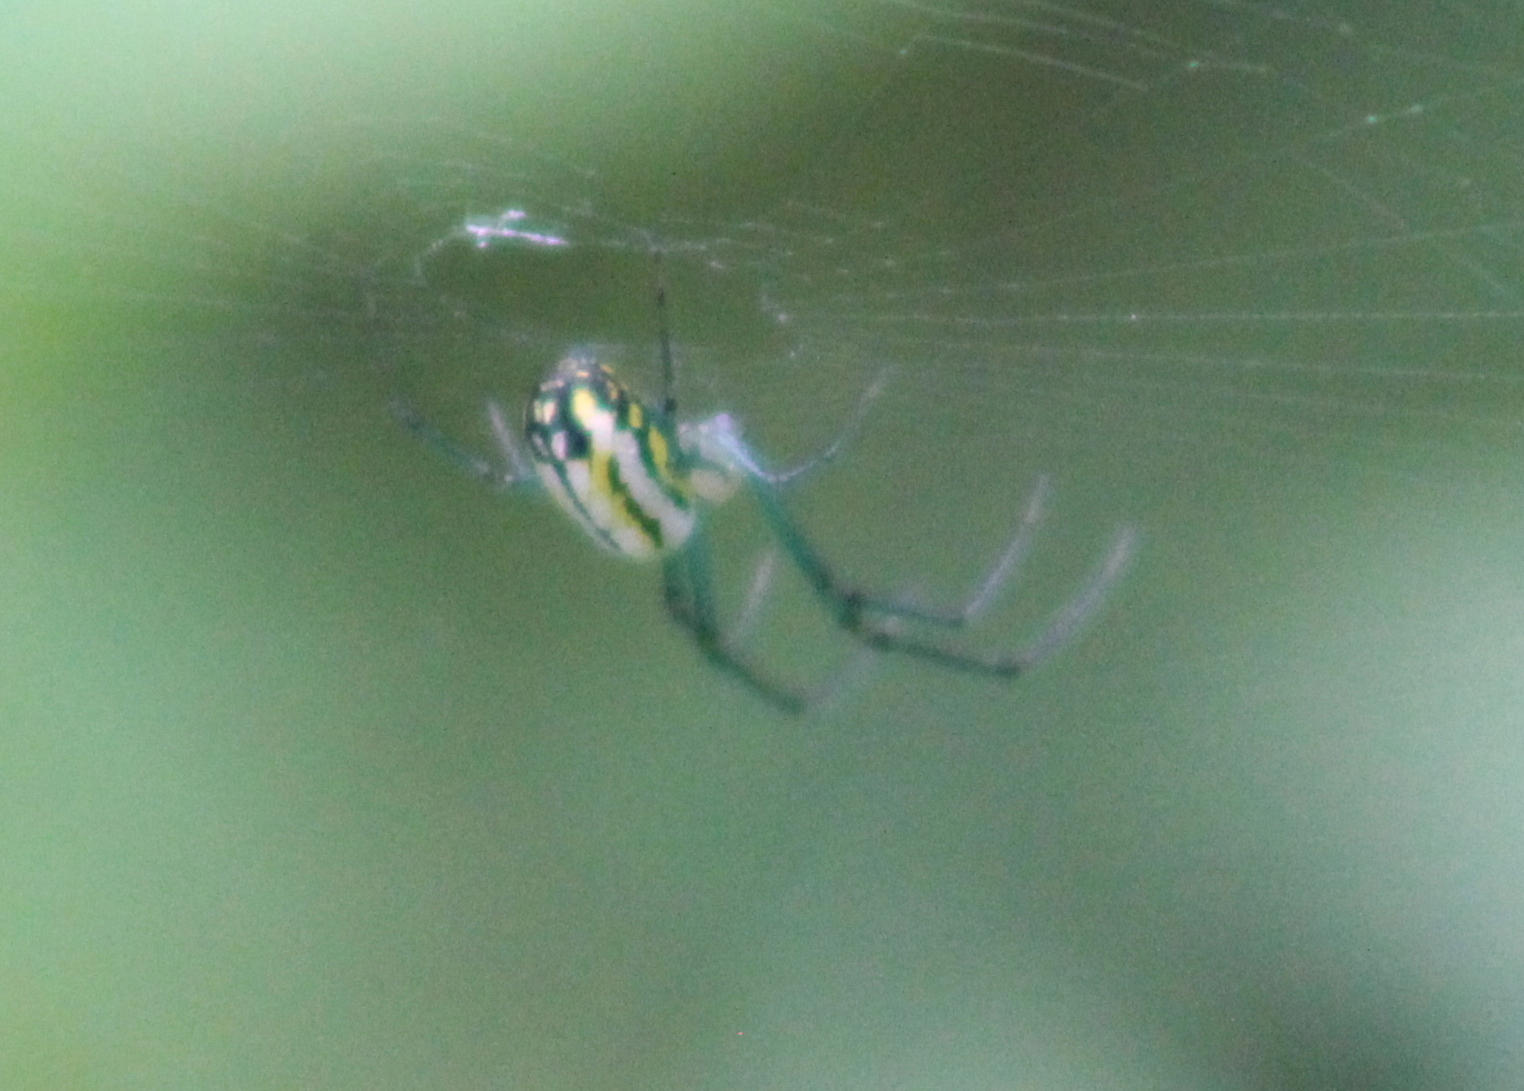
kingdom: Animalia
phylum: Arthropoda
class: Arachnida
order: Araneae
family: Tetragnathidae
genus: Leucauge
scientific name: Leucauge venusta
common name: Longjawed orb weavers
